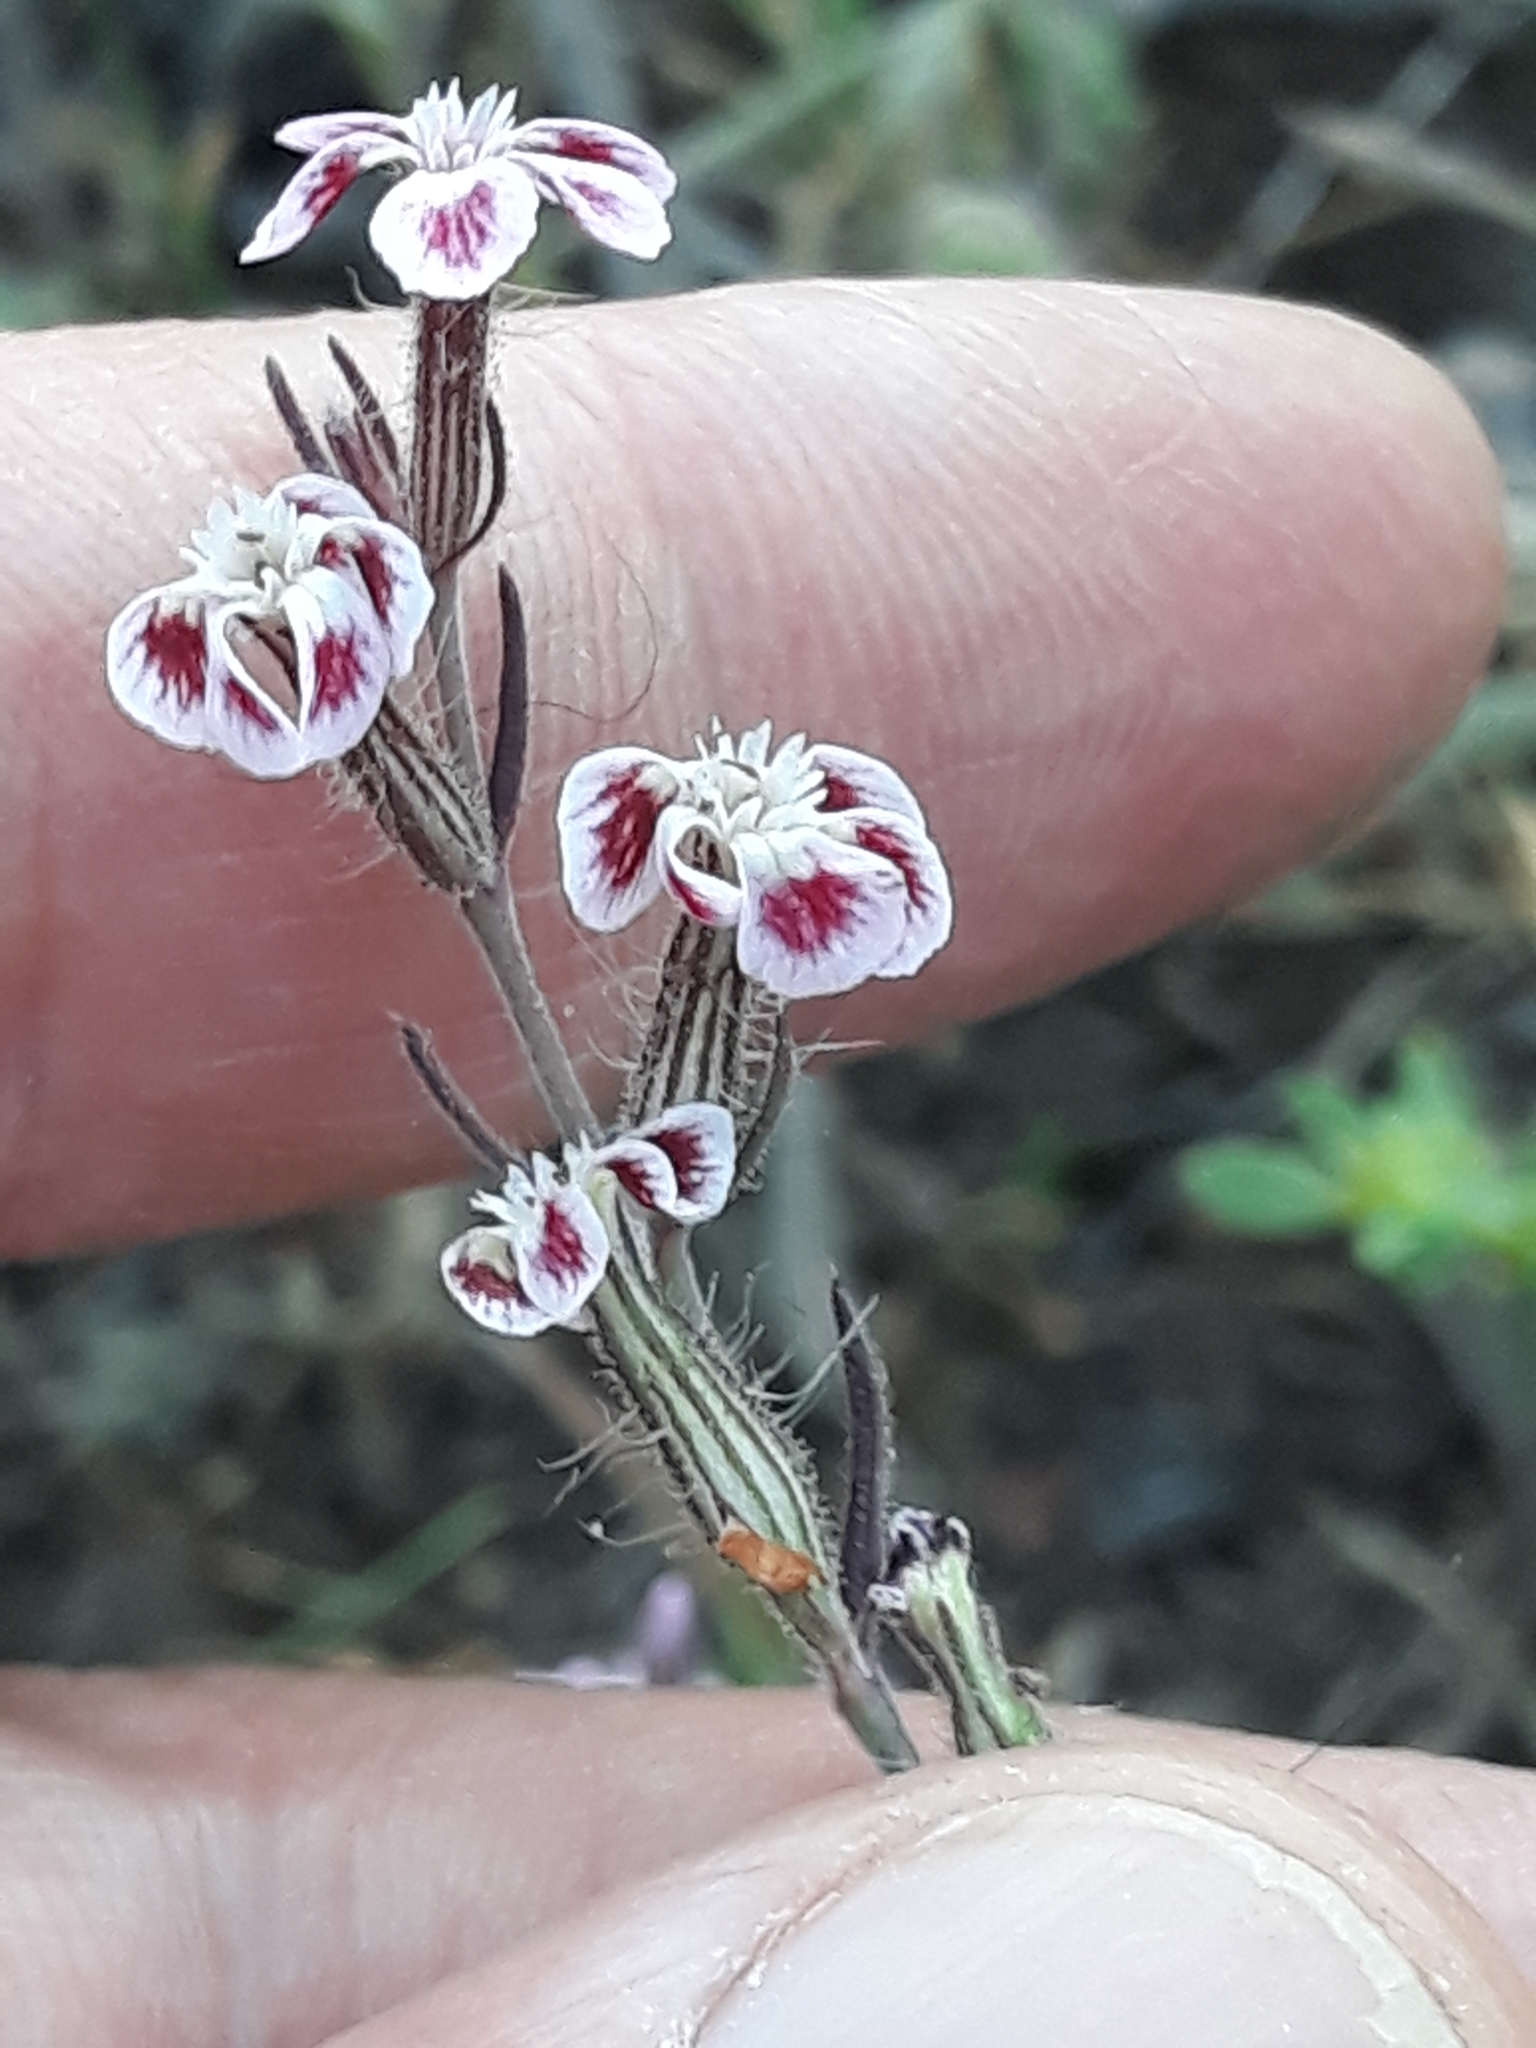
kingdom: Plantae
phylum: Tracheophyta
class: Magnoliopsida
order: Caryophyllales
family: Caryophyllaceae
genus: Silene
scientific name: Silene gallica
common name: Small-flowered catchfly
